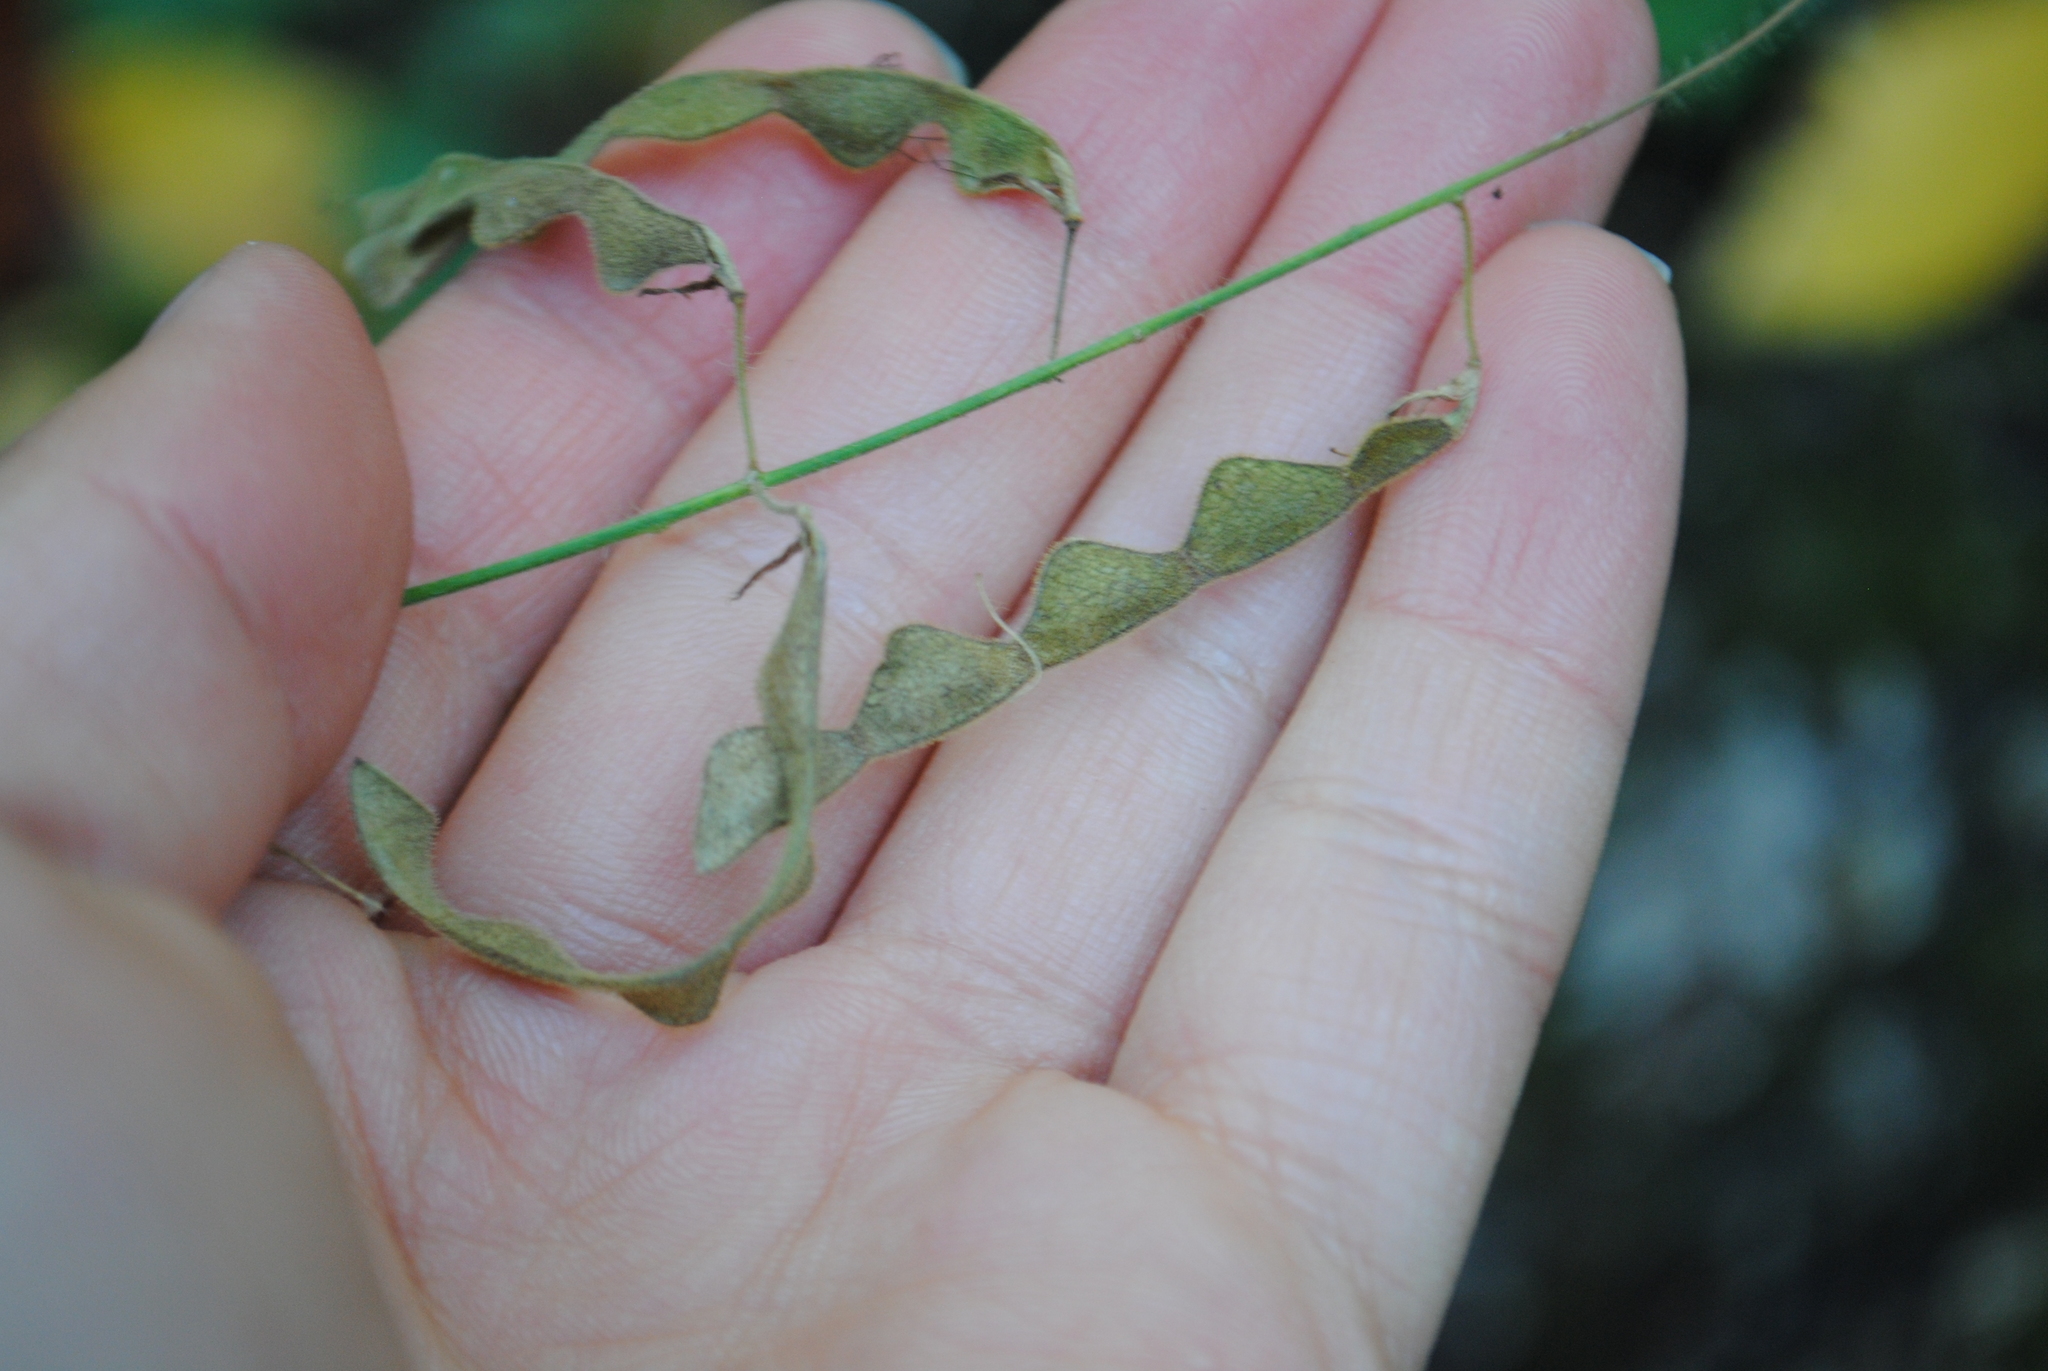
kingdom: Plantae
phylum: Tracheophyta
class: Magnoliopsida
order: Fabales
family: Fabaceae
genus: Desmodium
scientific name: Desmodium canescens
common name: Hoary tick-clover
